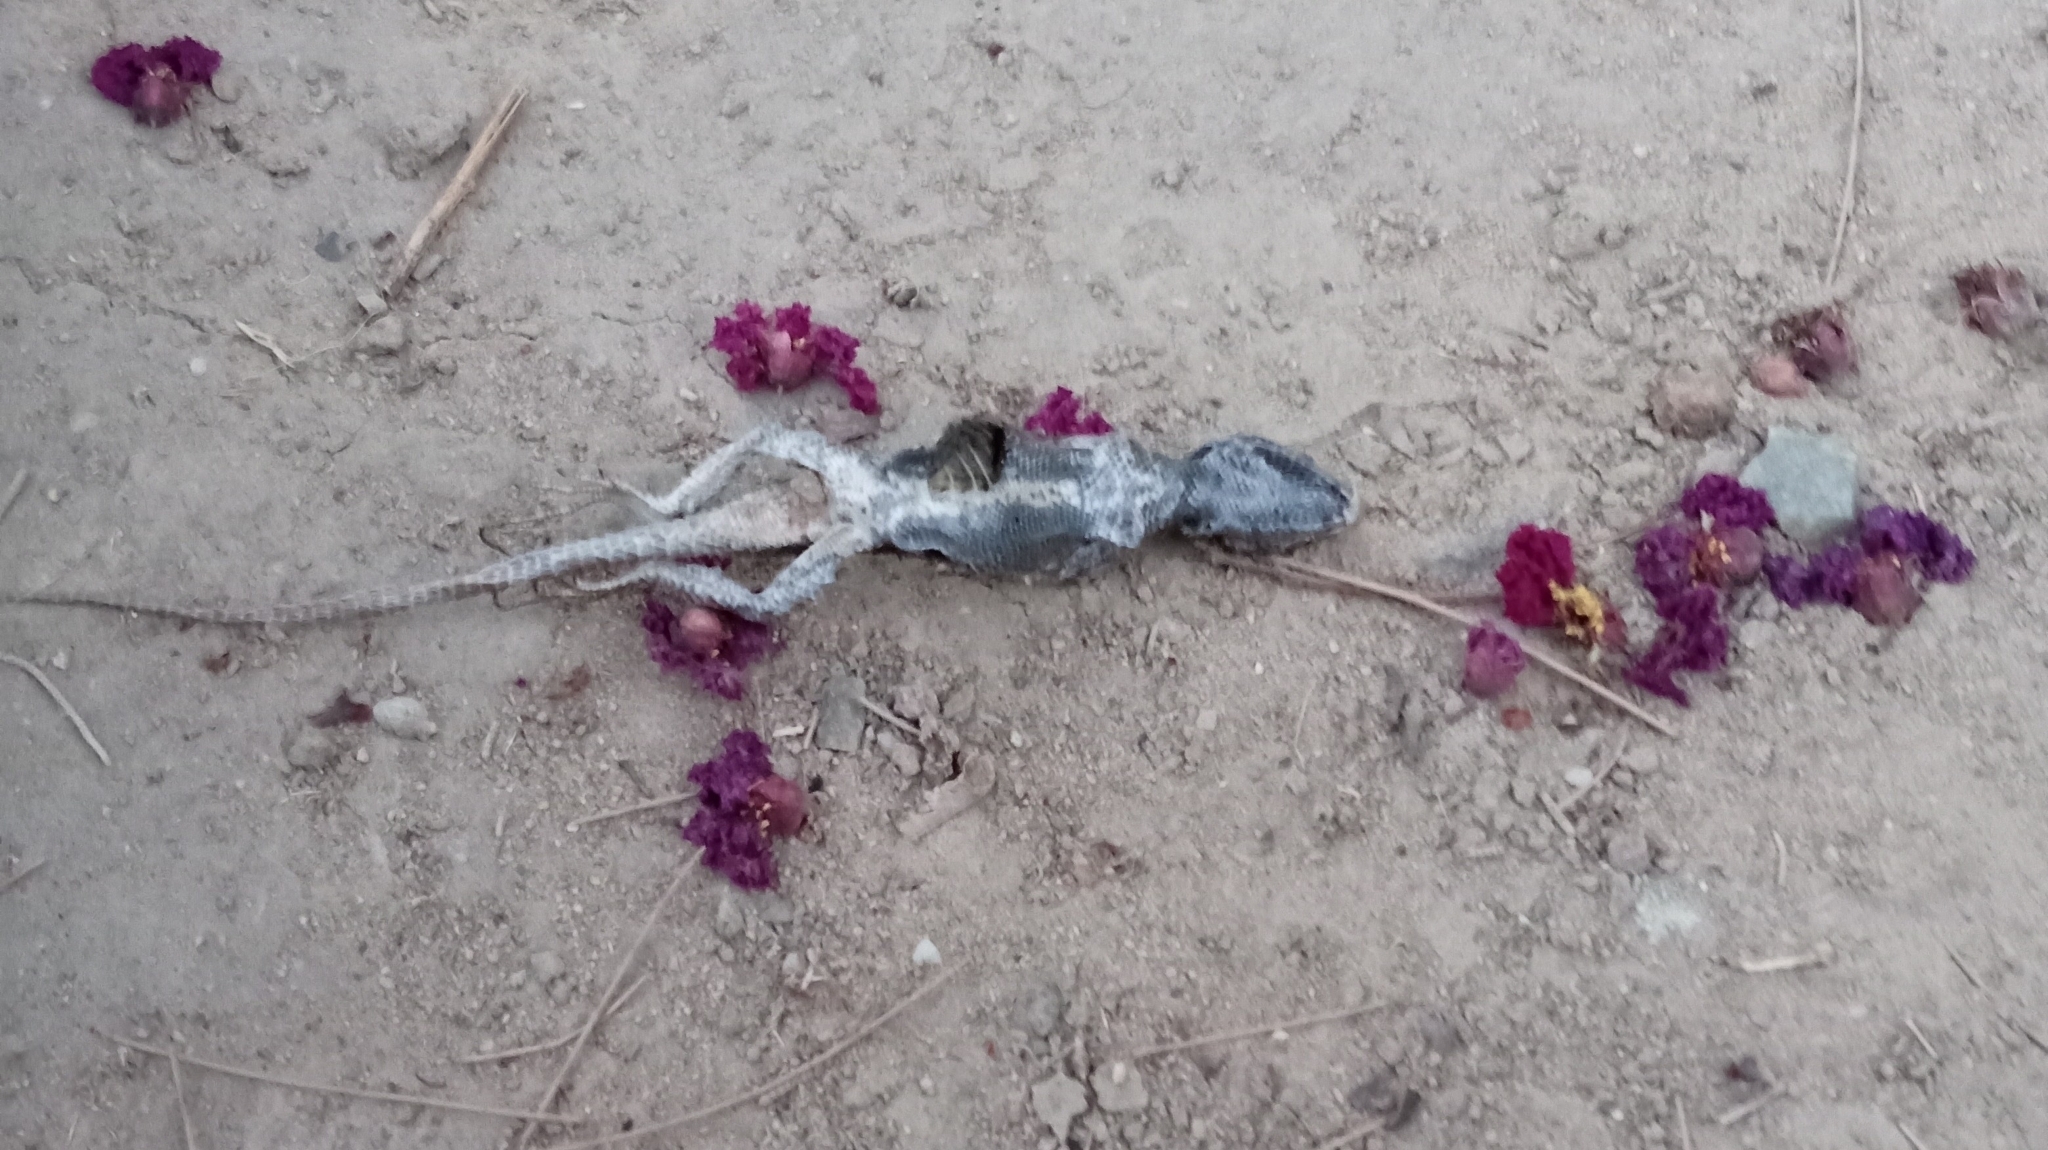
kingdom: Animalia
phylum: Chordata
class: Squamata
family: Phrynosomatidae
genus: Sceloporus
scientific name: Sceloporus occidentalis
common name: Western fence lizard
